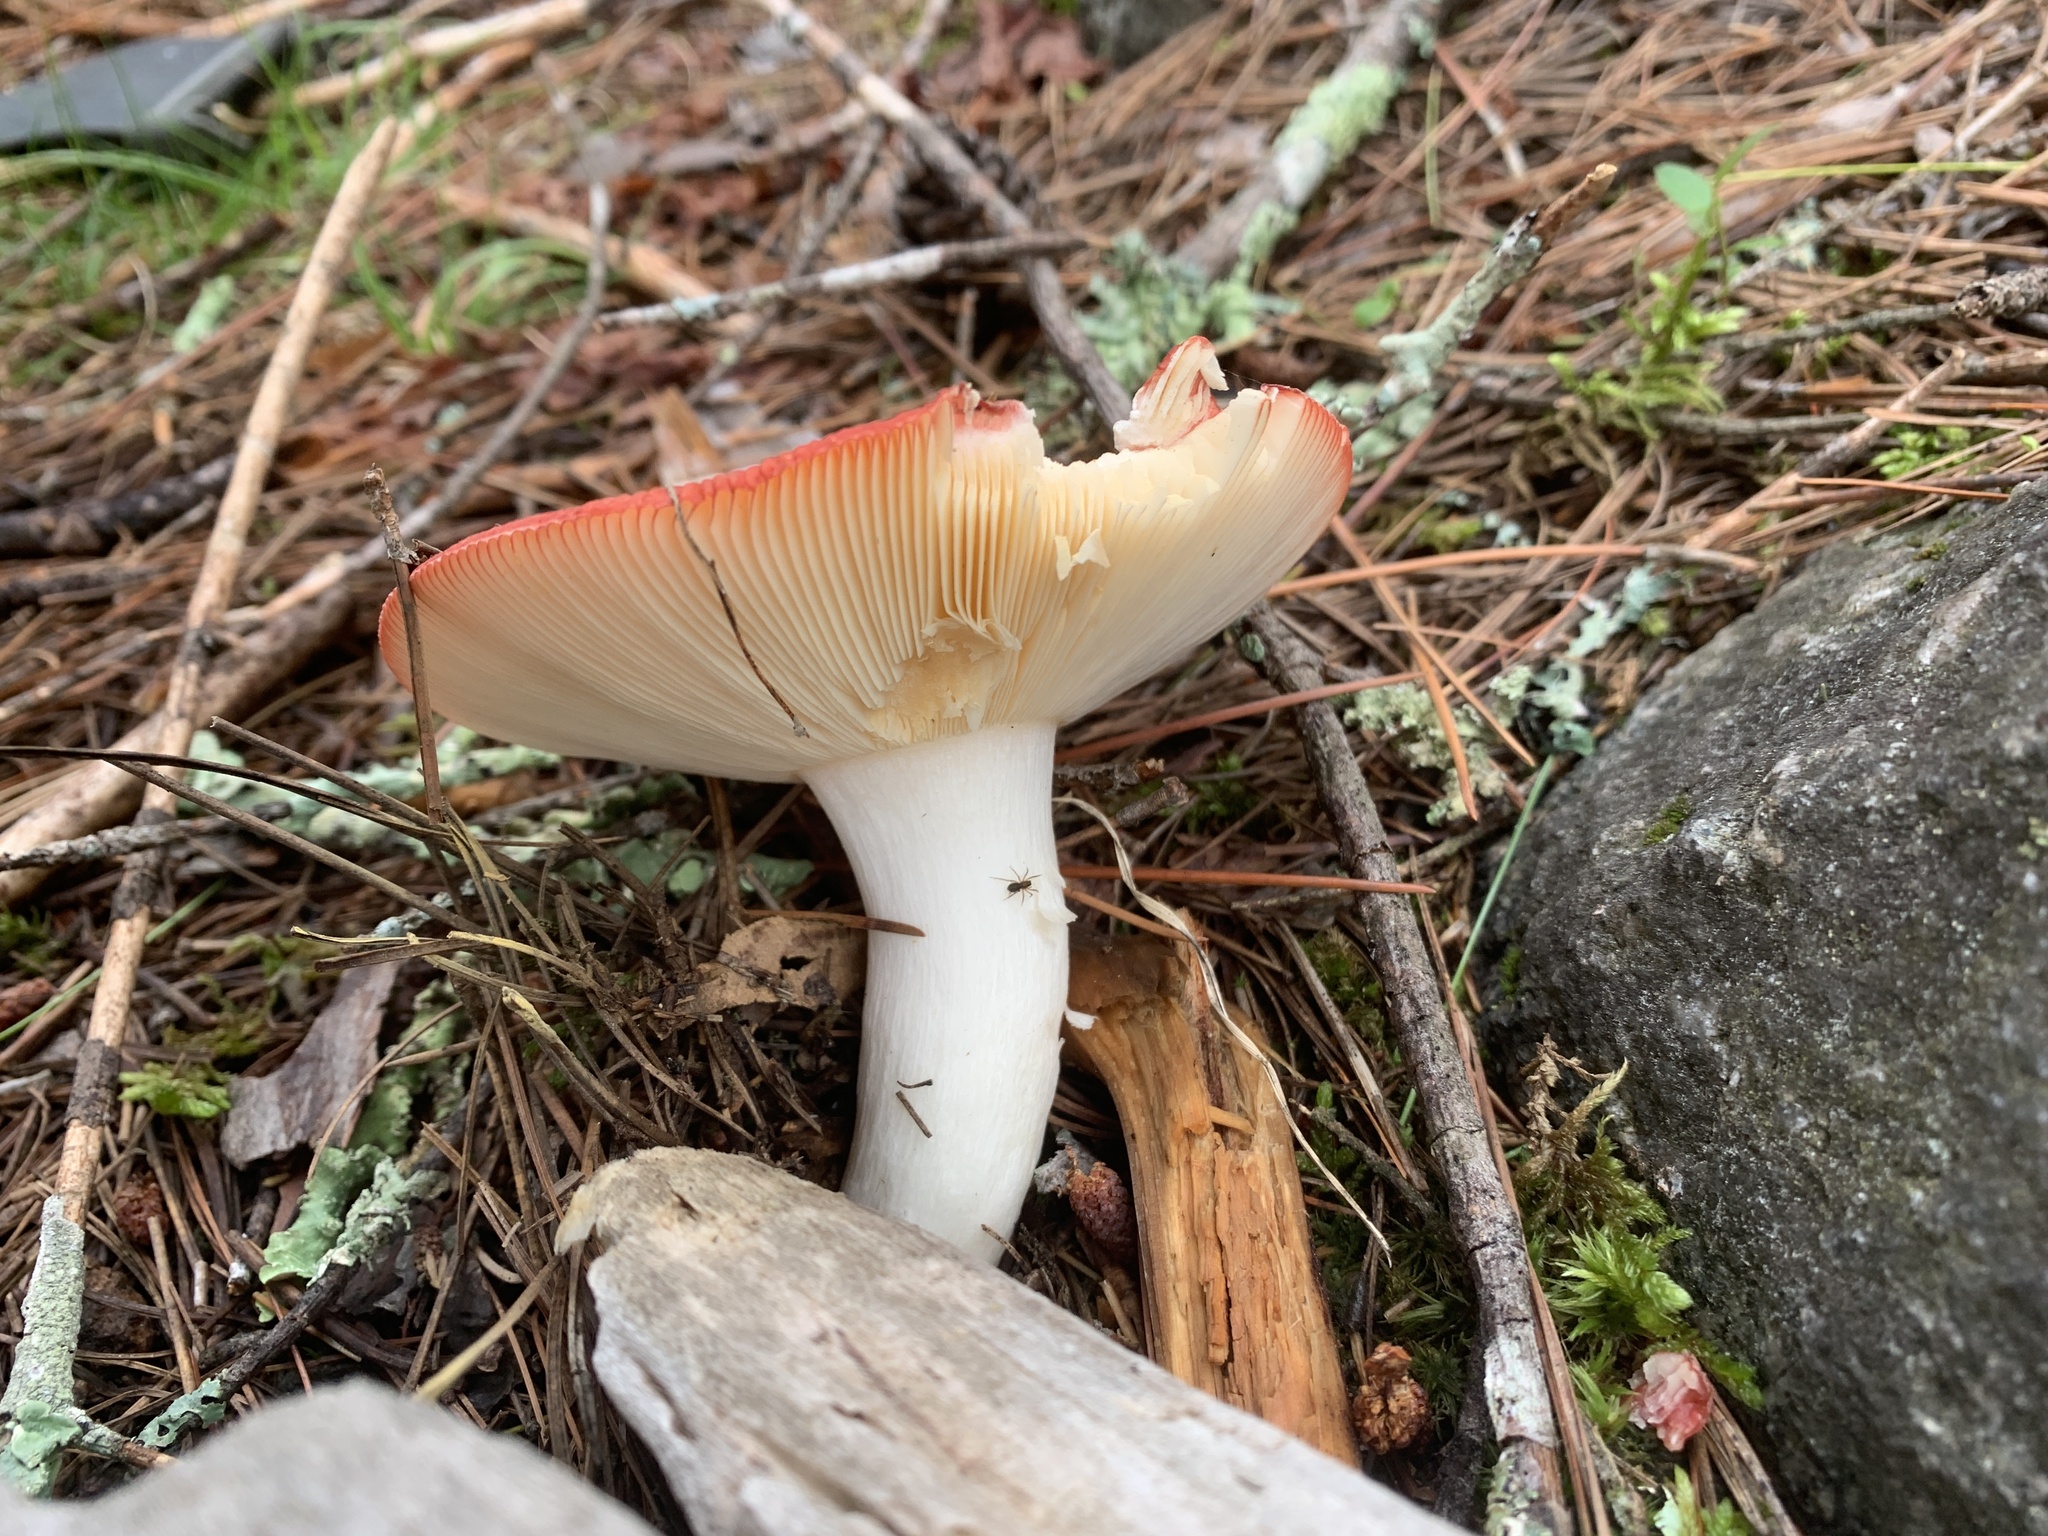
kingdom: Fungi
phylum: Basidiomycota
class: Agaricomycetes
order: Russulales
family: Russulaceae
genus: Russula
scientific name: Russula
